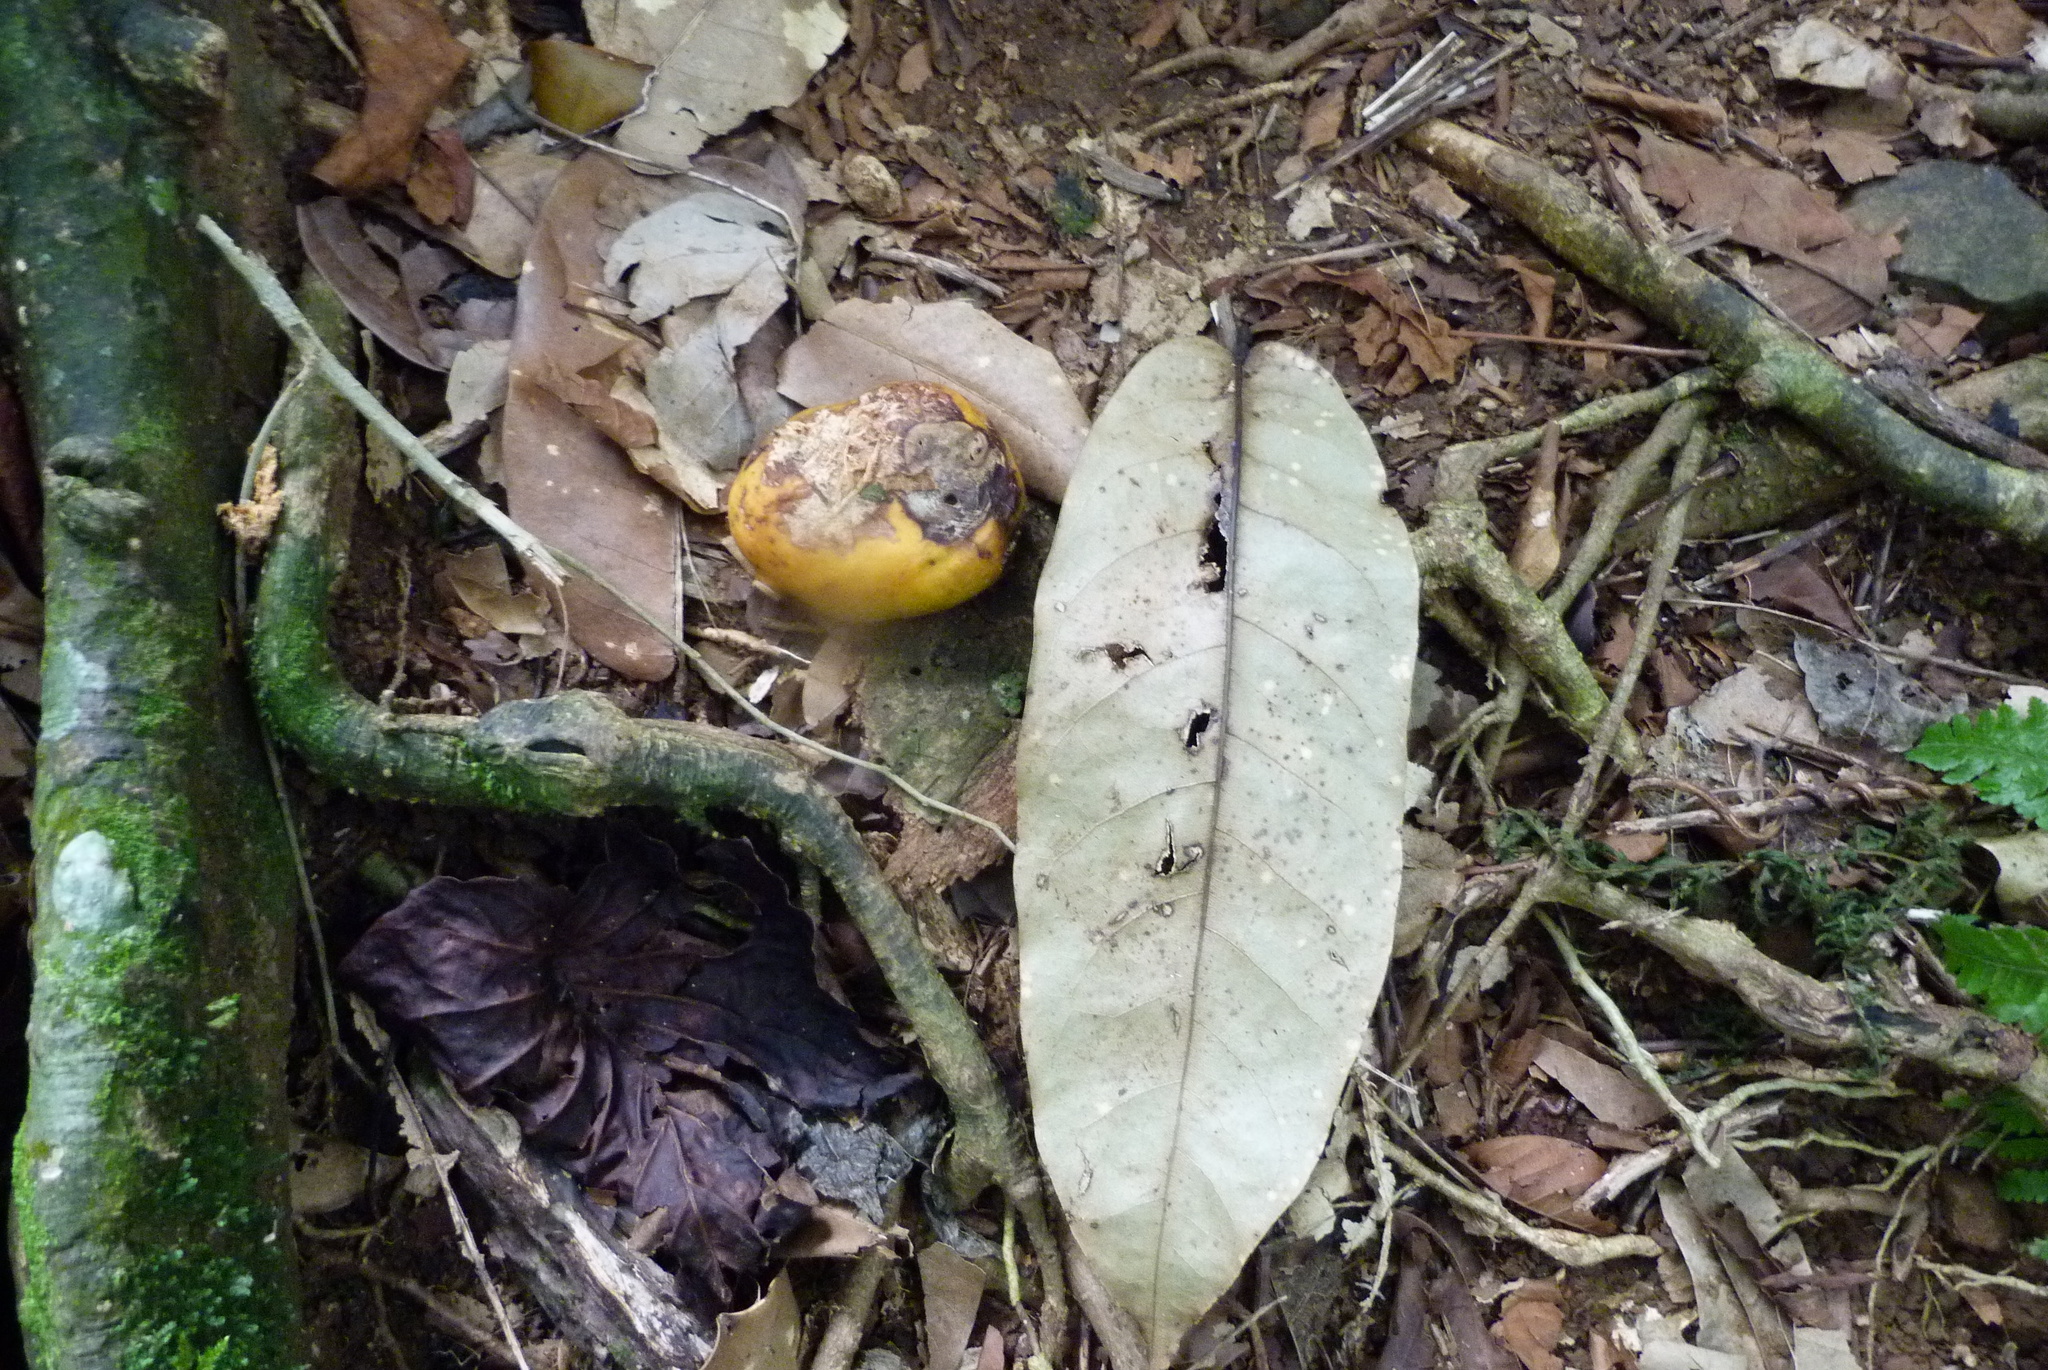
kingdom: Plantae
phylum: Tracheophyta
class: Magnoliopsida
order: Fabales
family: Fabaceae
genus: Inocarpus
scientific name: Inocarpus fagifer
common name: Polynesian chestnut
